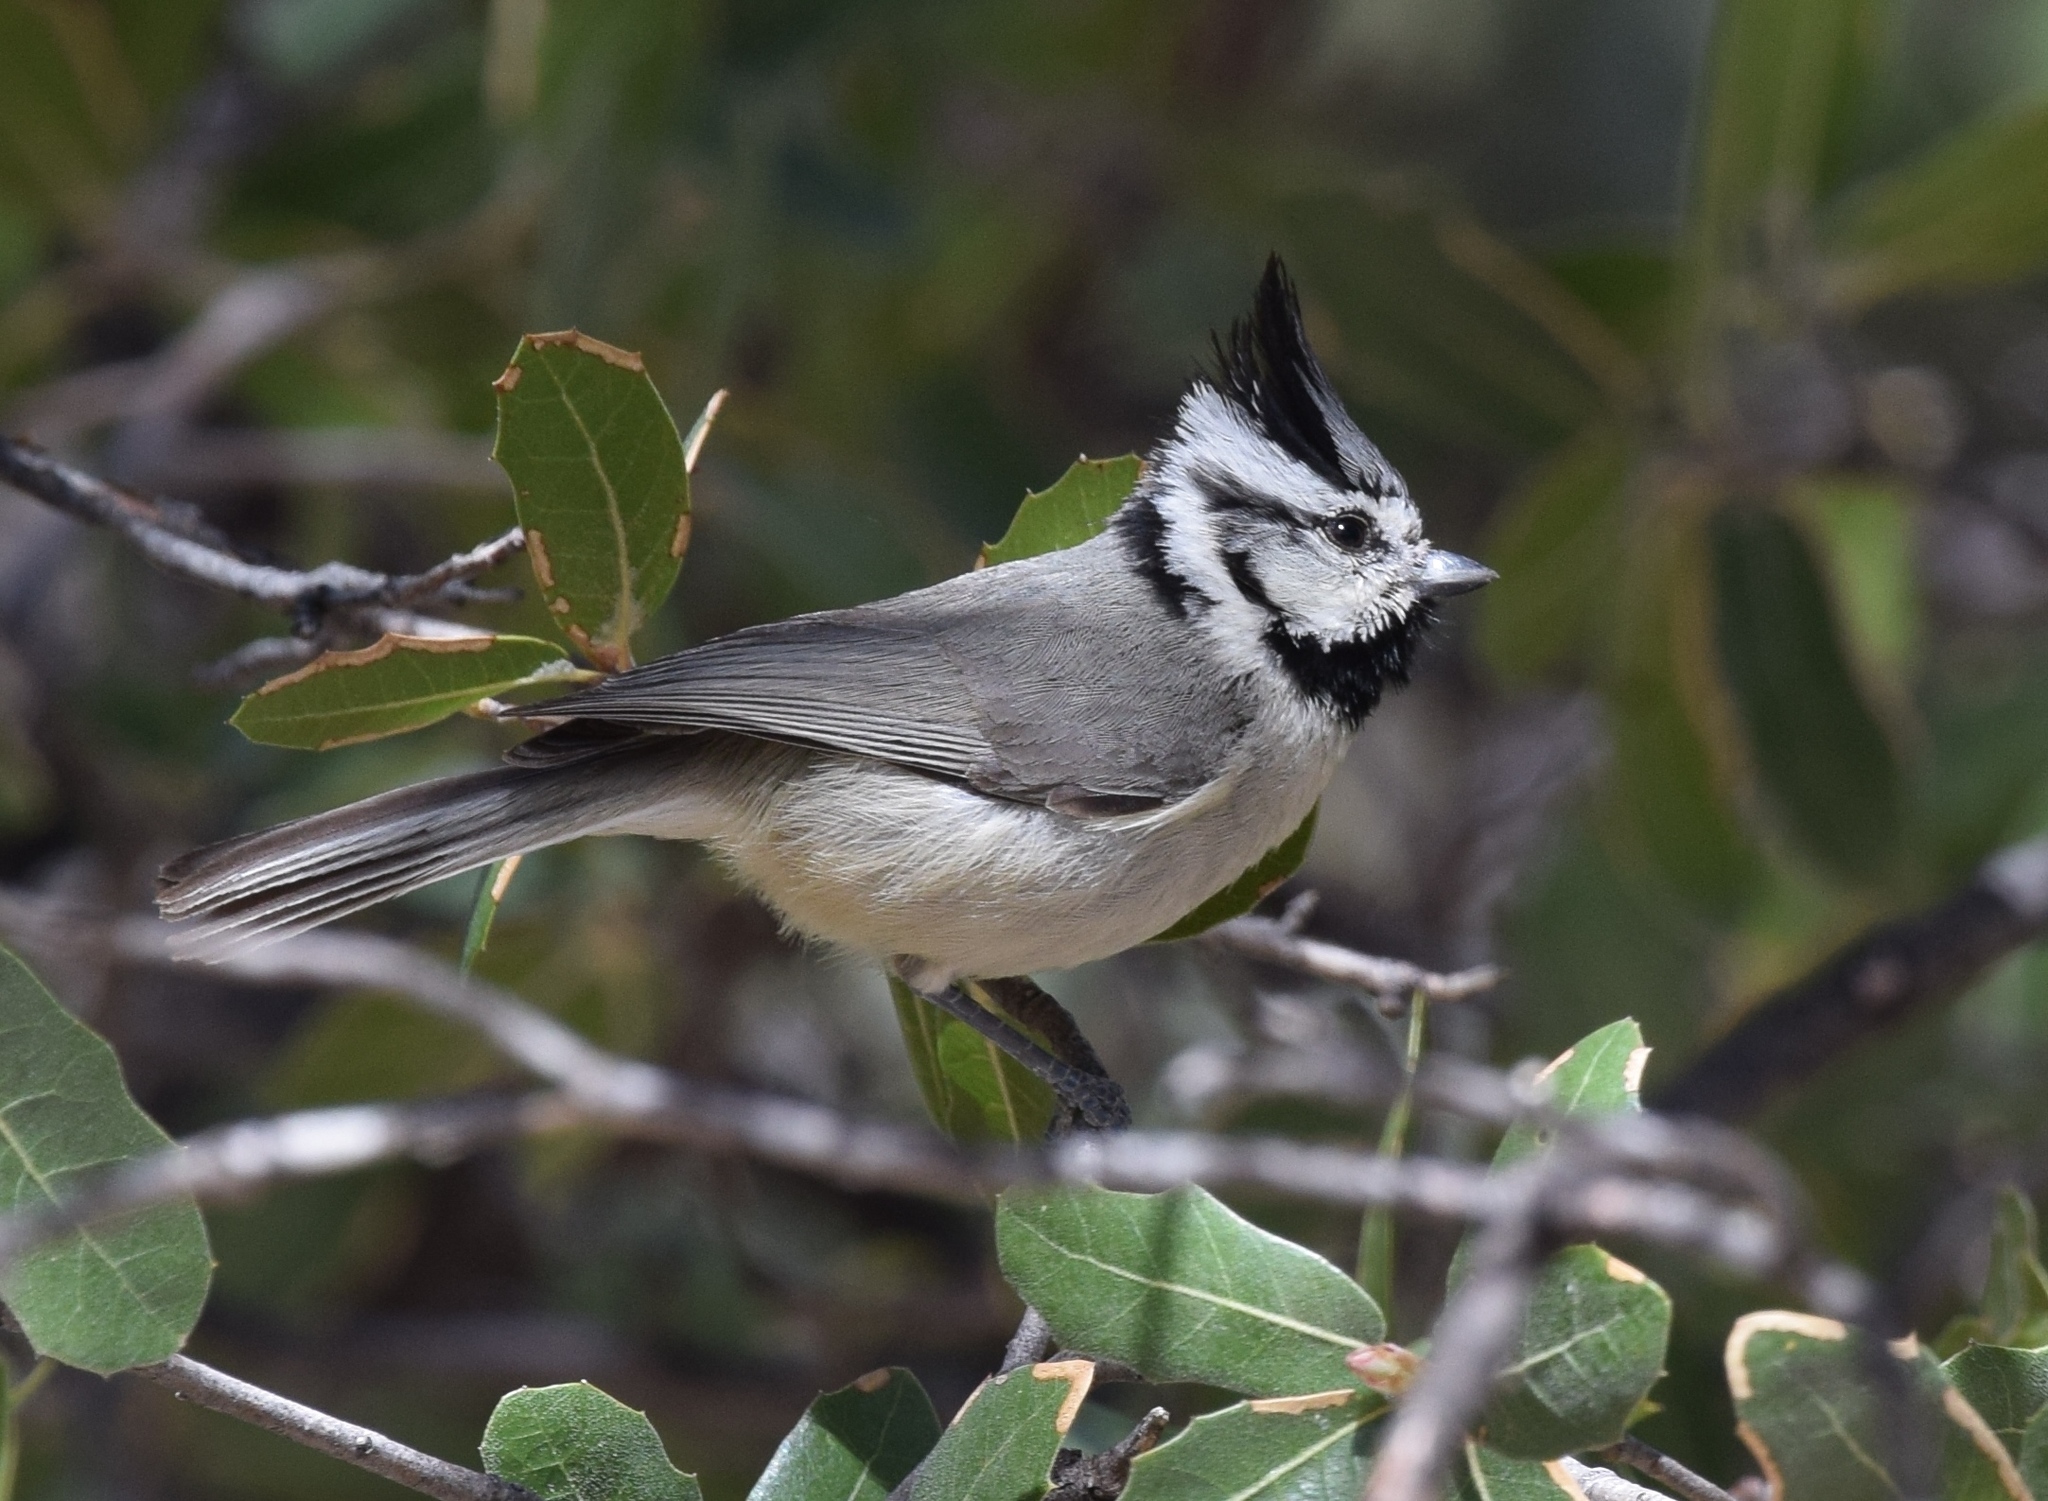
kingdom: Animalia
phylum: Chordata
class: Aves
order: Passeriformes
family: Paridae
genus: Baeolophus
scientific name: Baeolophus wollweberi
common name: Bridled titmouse
